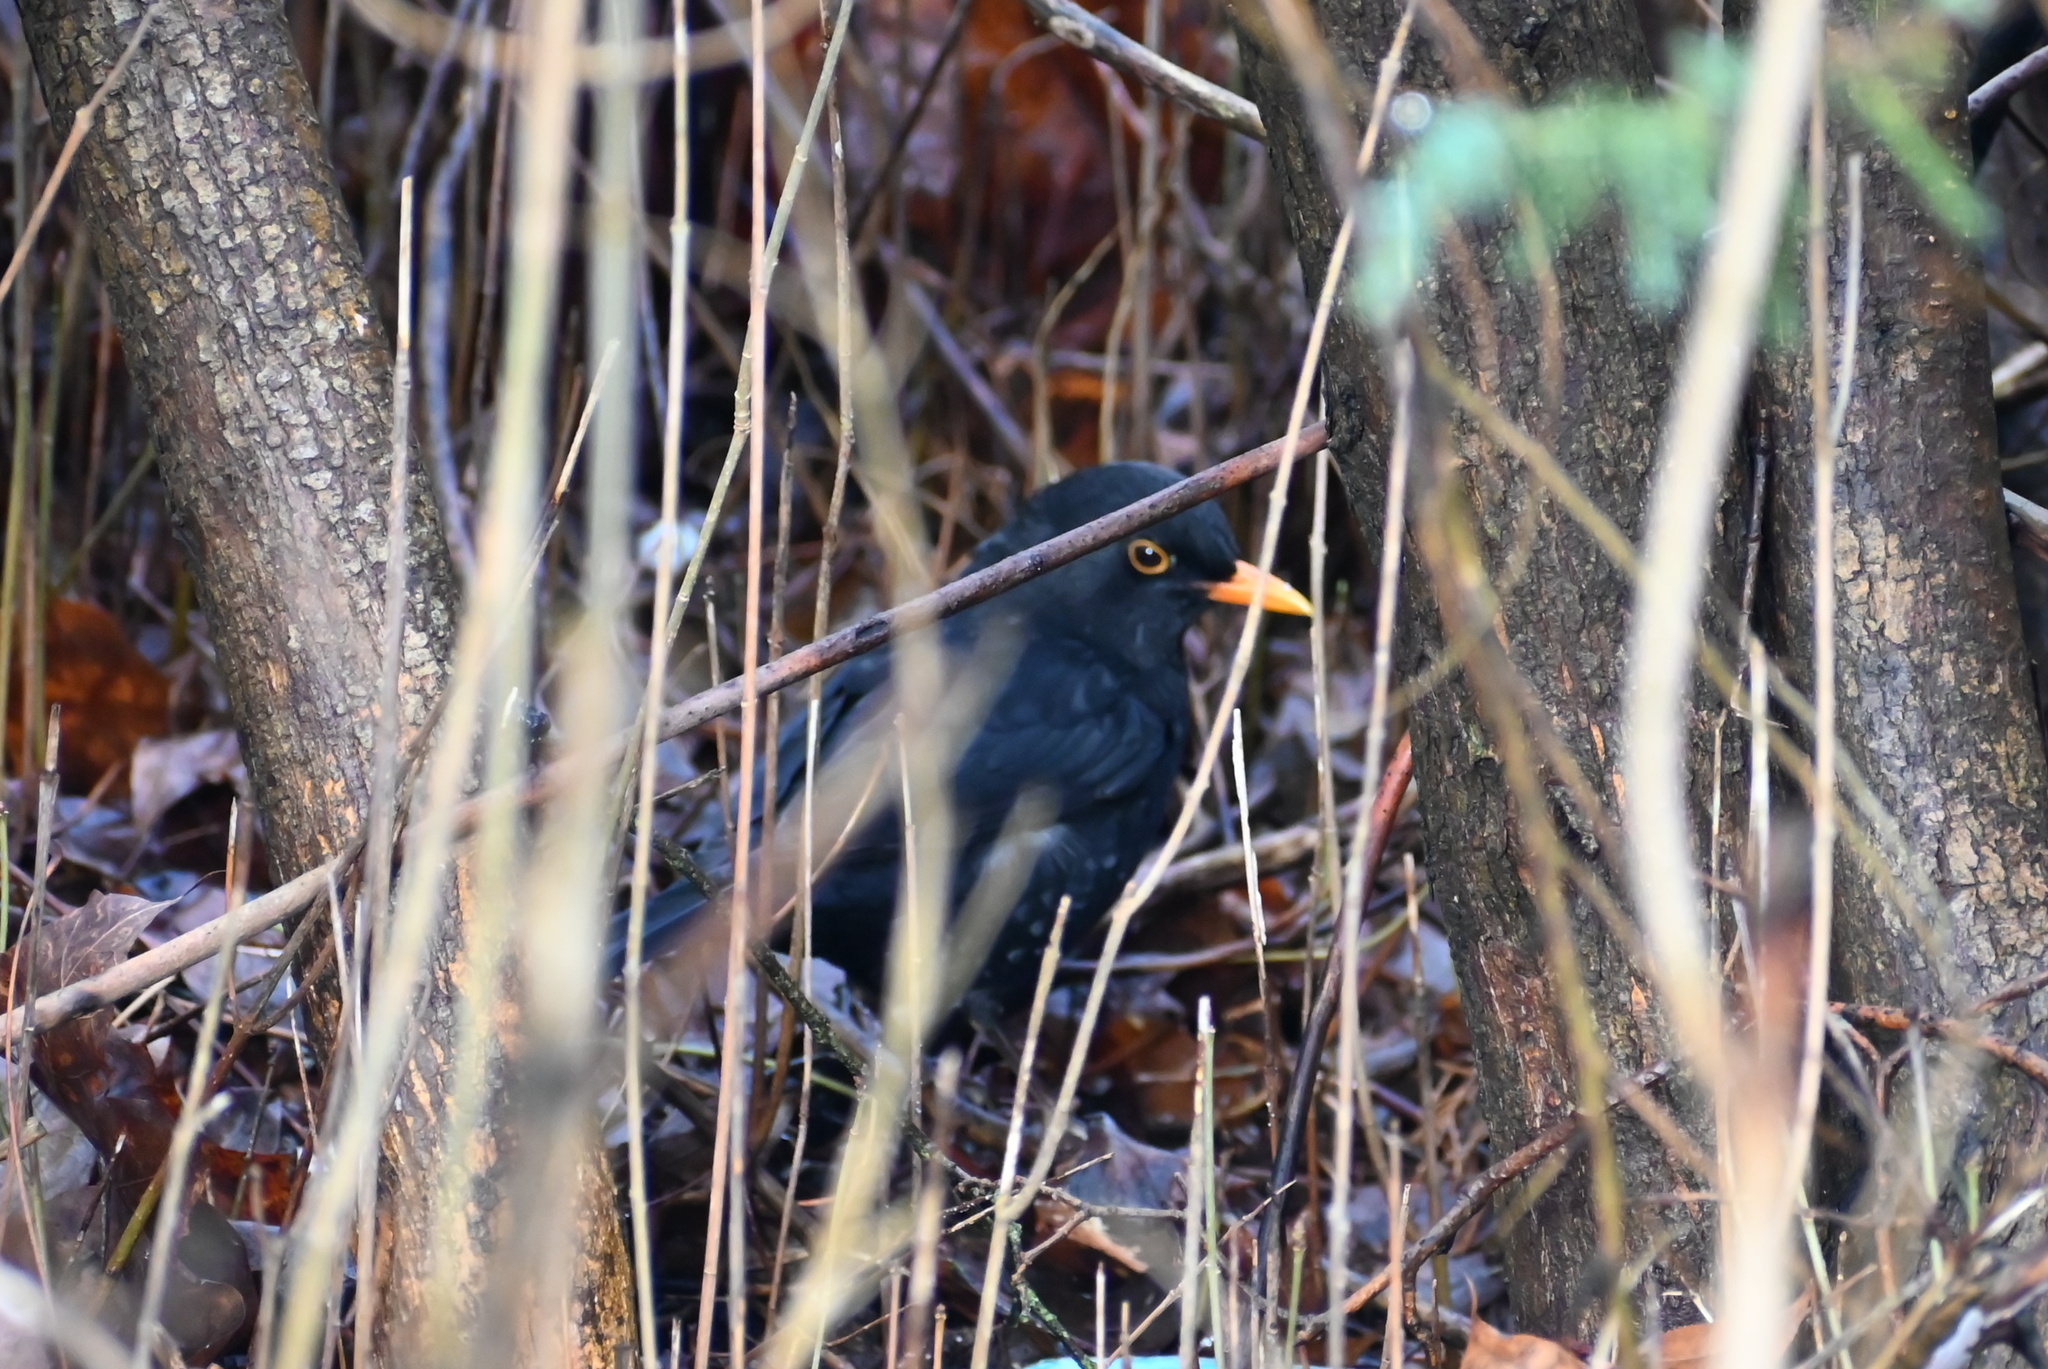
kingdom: Animalia
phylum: Chordata
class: Aves
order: Passeriformes
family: Turdidae
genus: Turdus
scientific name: Turdus merula
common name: Common blackbird
